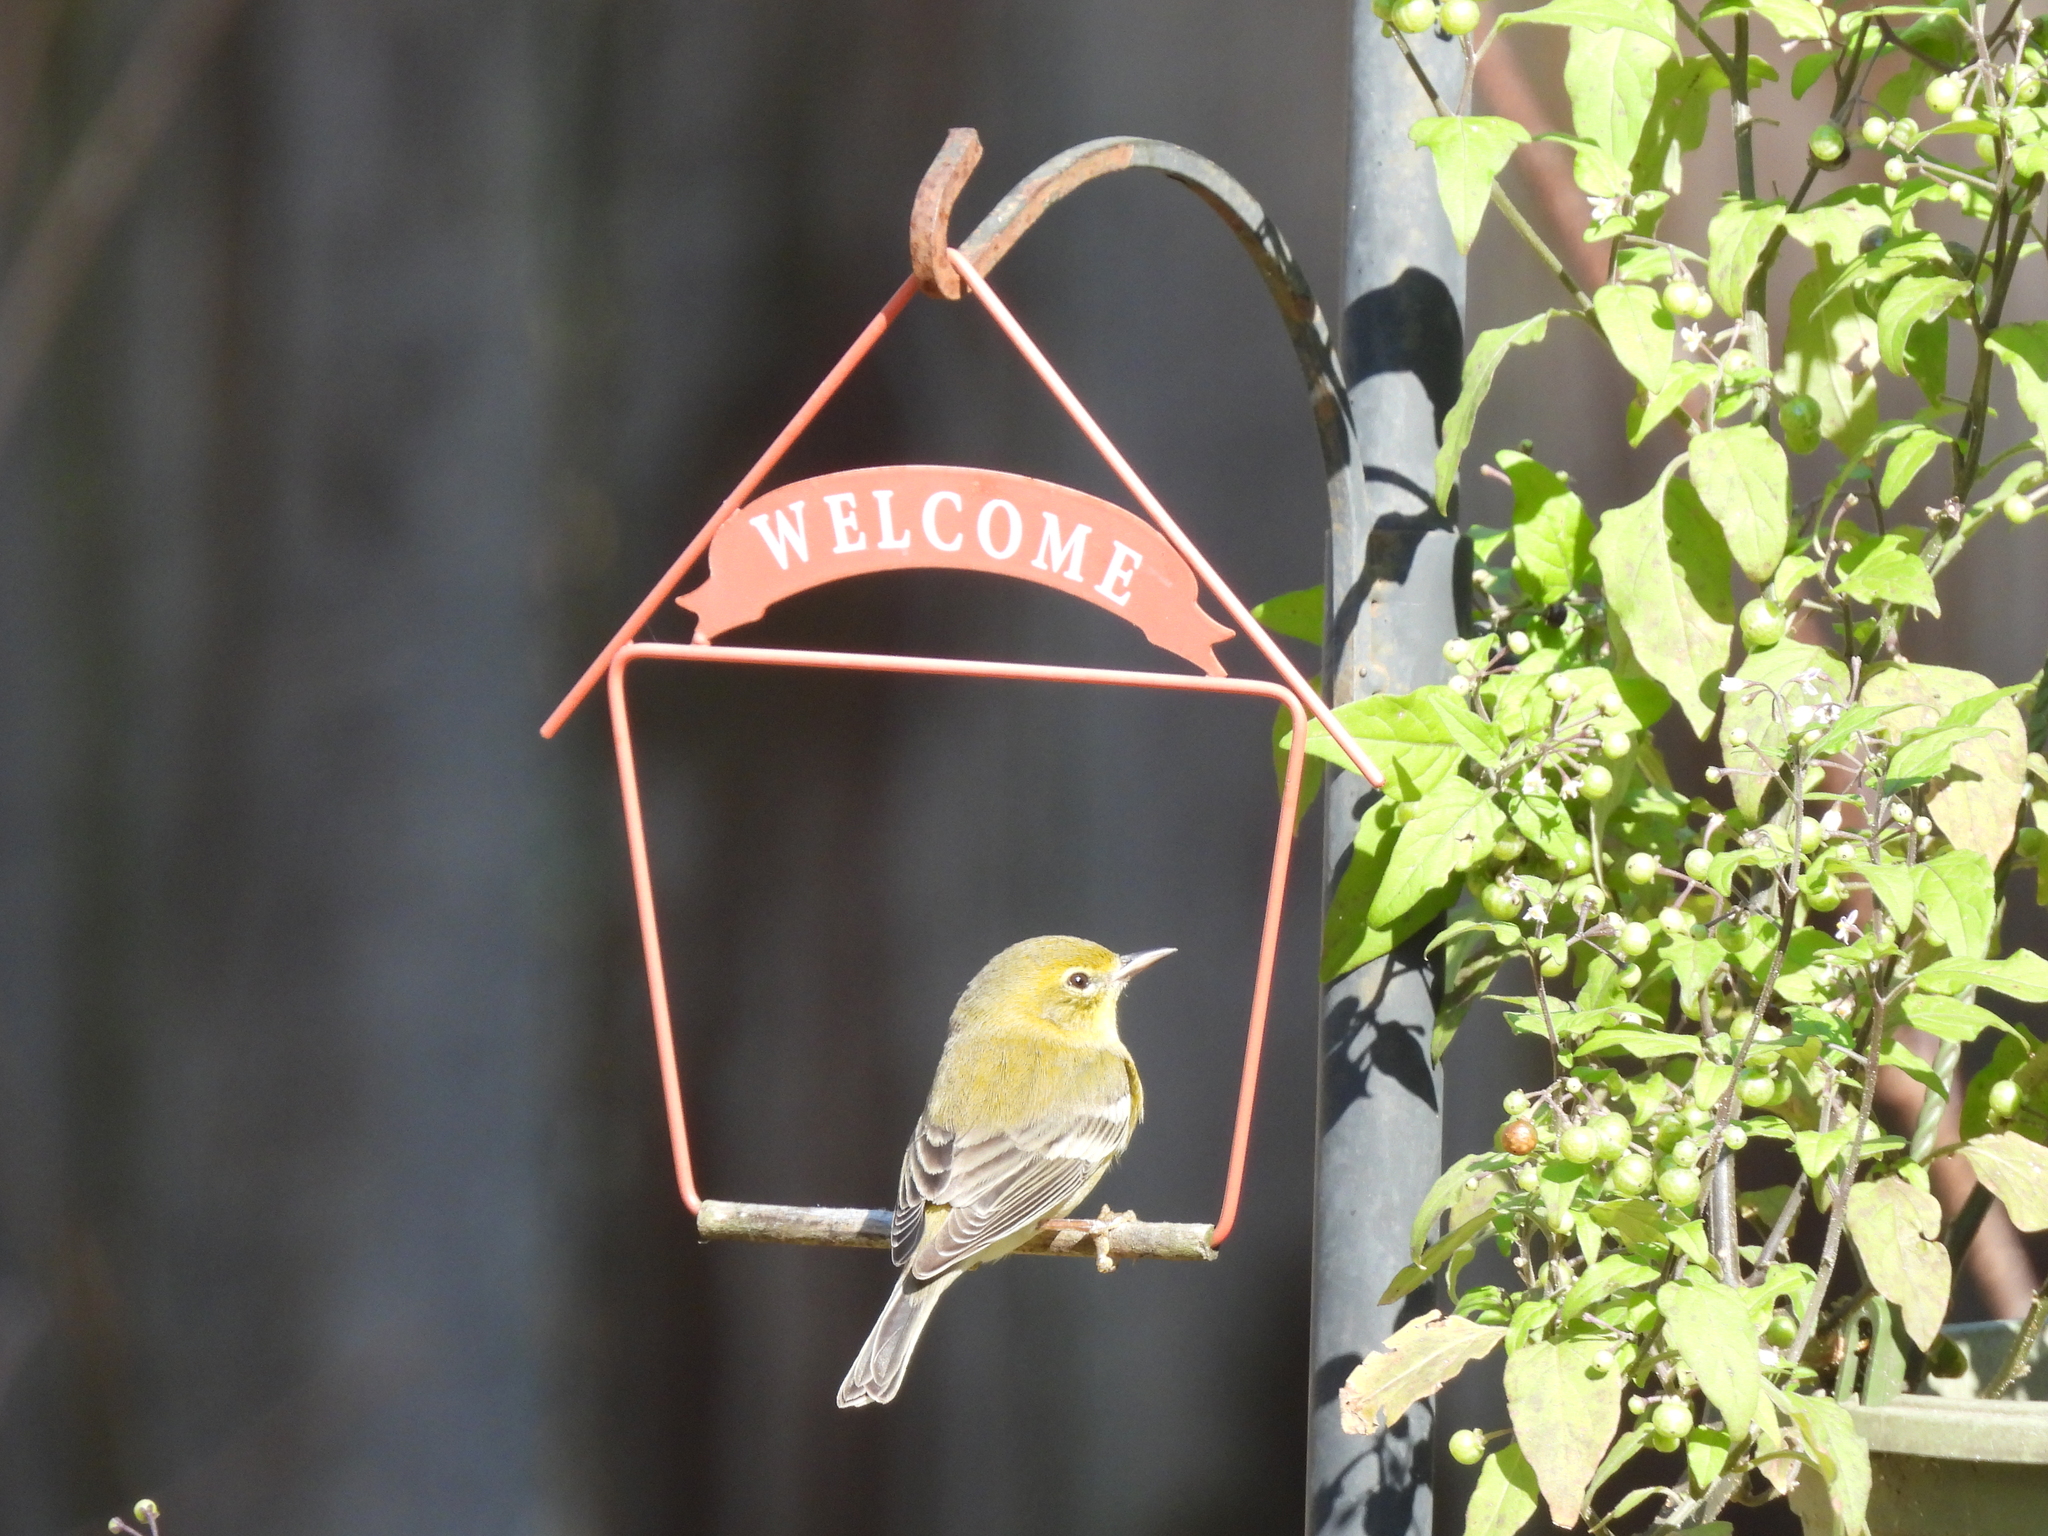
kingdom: Animalia
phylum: Chordata
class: Aves
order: Passeriformes
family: Parulidae
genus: Setophaga
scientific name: Setophaga pinus
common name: Pine warbler
